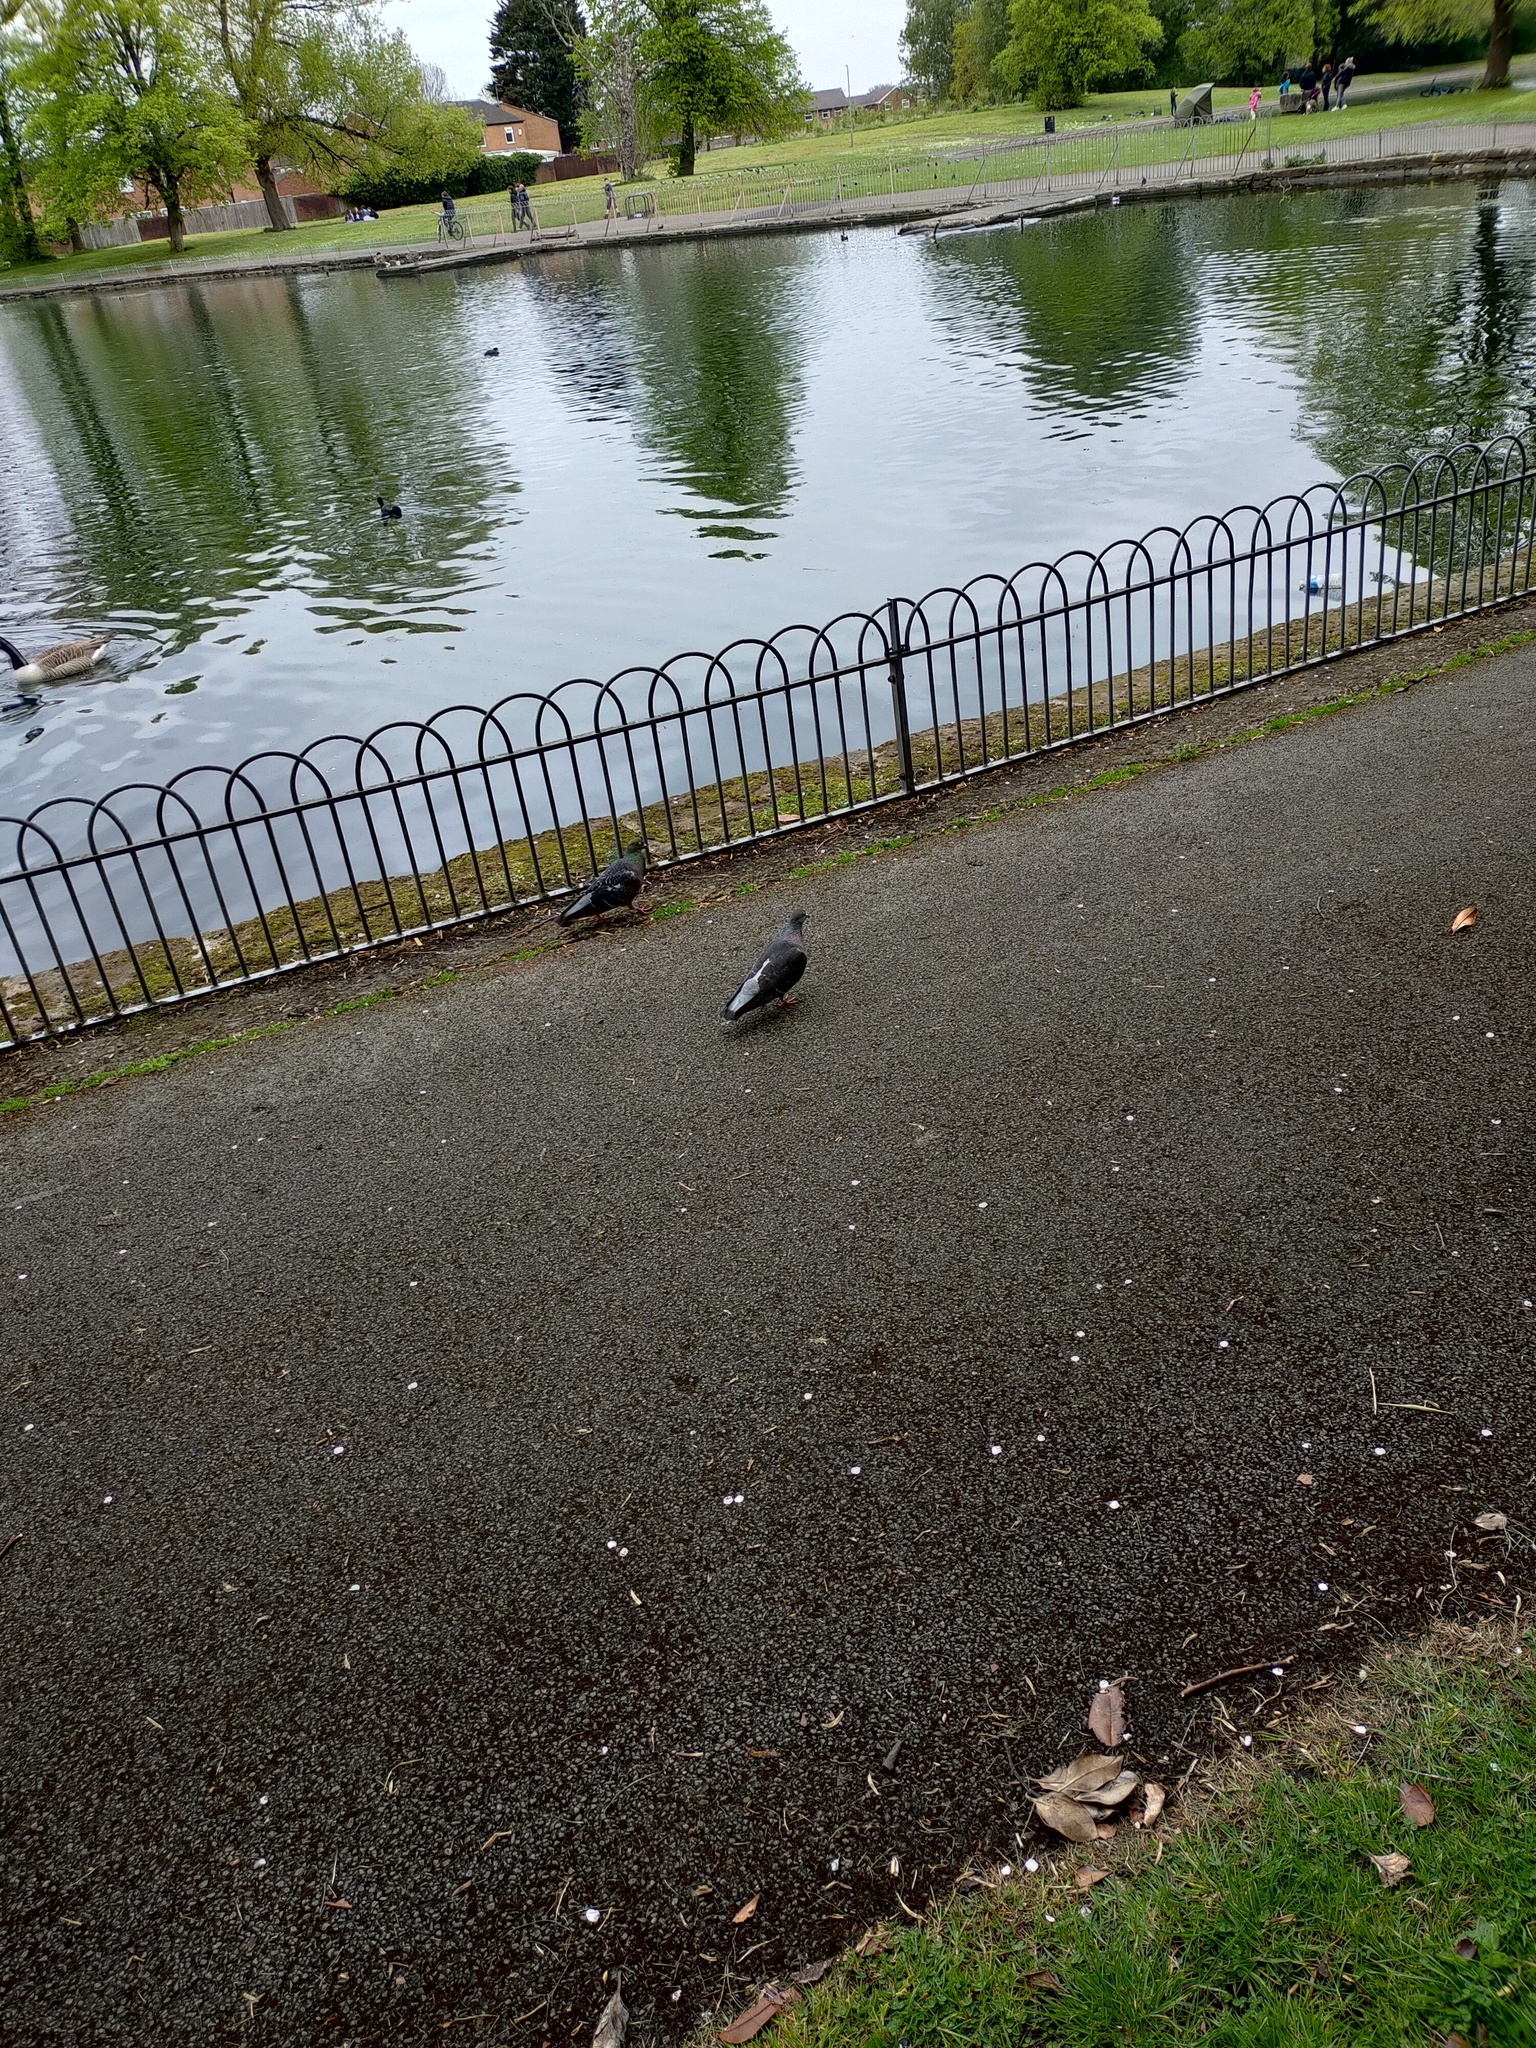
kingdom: Animalia
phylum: Chordata
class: Aves
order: Columbiformes
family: Columbidae
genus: Columba
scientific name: Columba livia
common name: Rock pigeon
